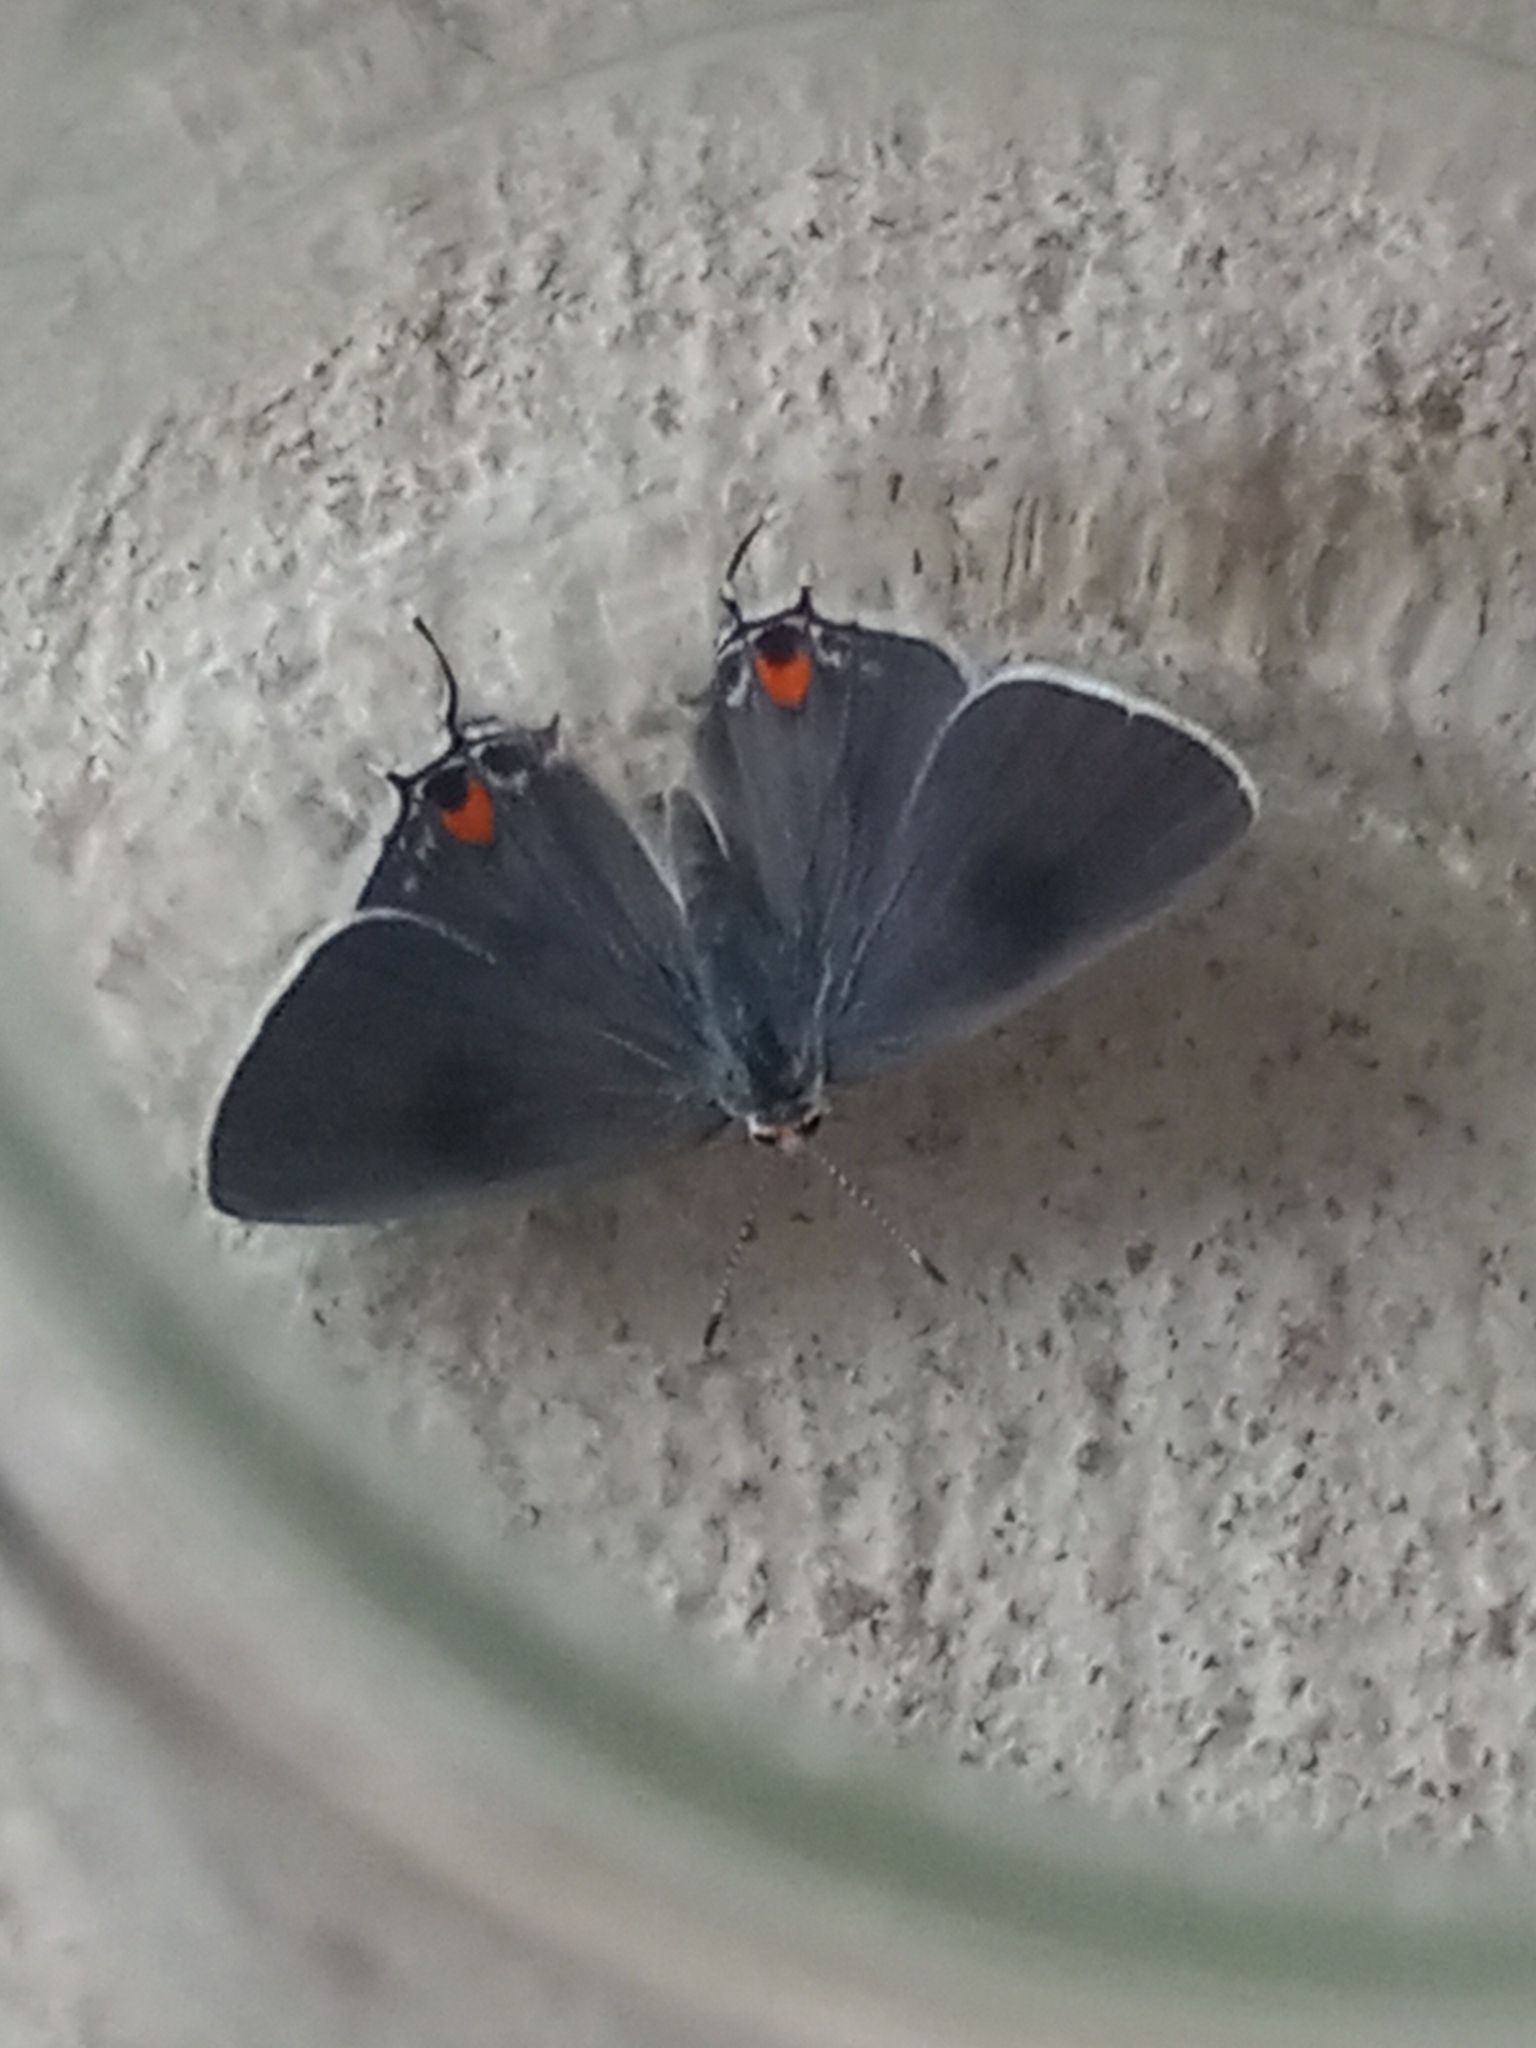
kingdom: Animalia
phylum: Arthropoda
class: Insecta
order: Lepidoptera
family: Lycaenidae
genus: Strymon
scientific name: Strymon melinus
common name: Gray hairstreak
